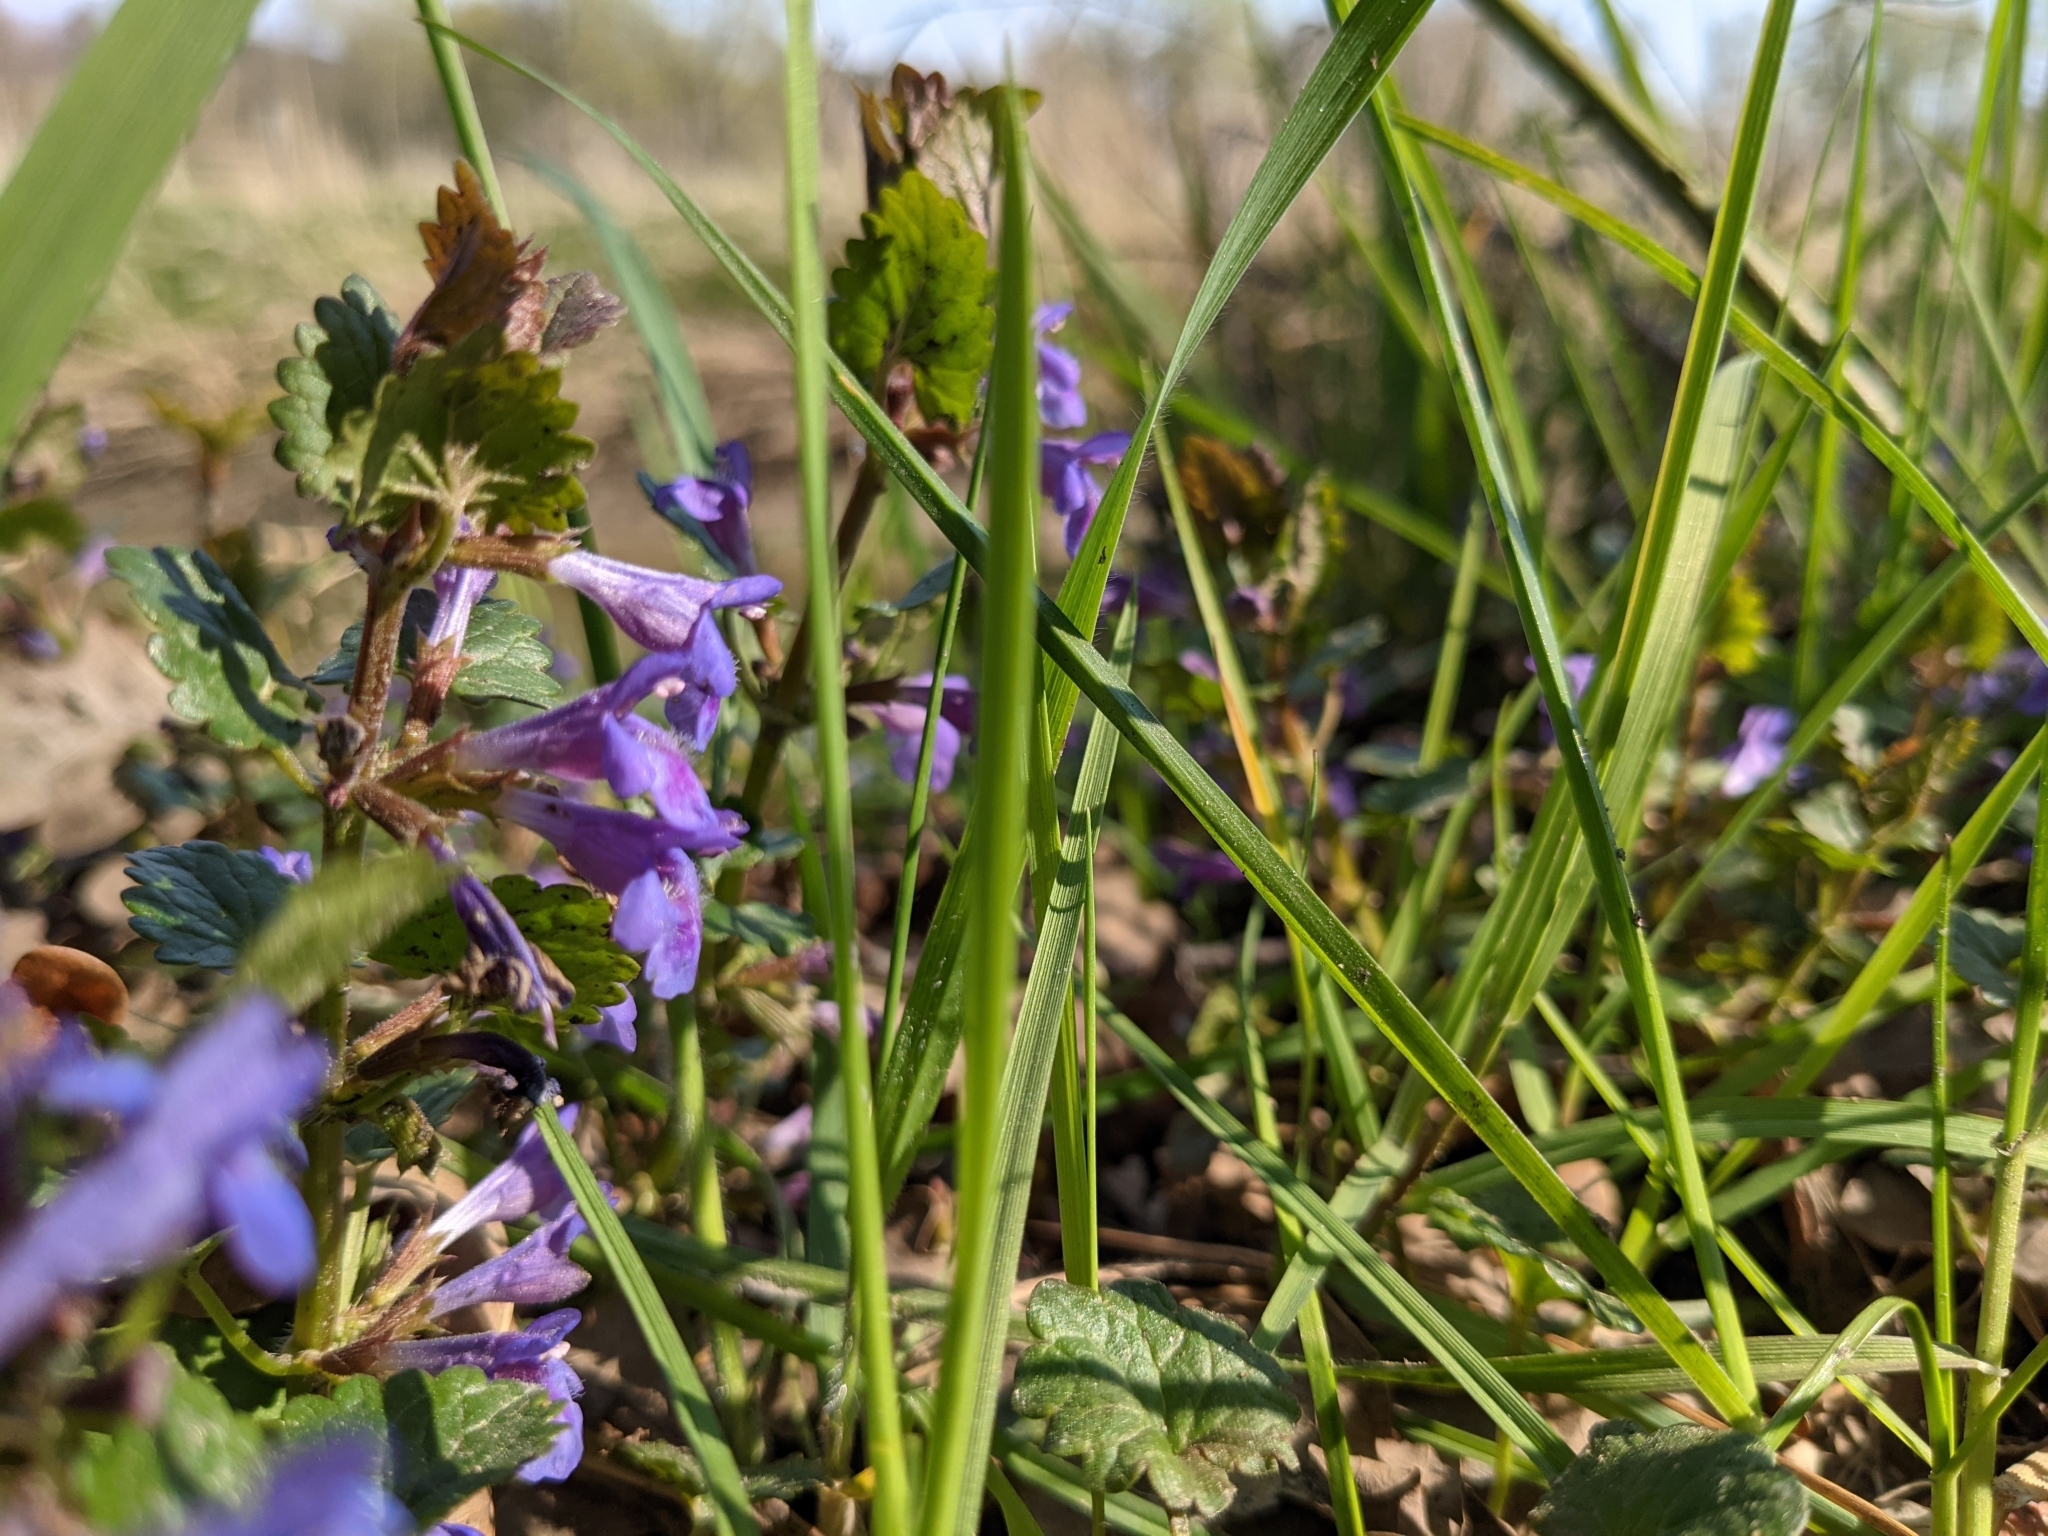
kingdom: Plantae
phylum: Tracheophyta
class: Magnoliopsida
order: Lamiales
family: Lamiaceae
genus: Glechoma
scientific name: Glechoma hederacea
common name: Ground ivy
